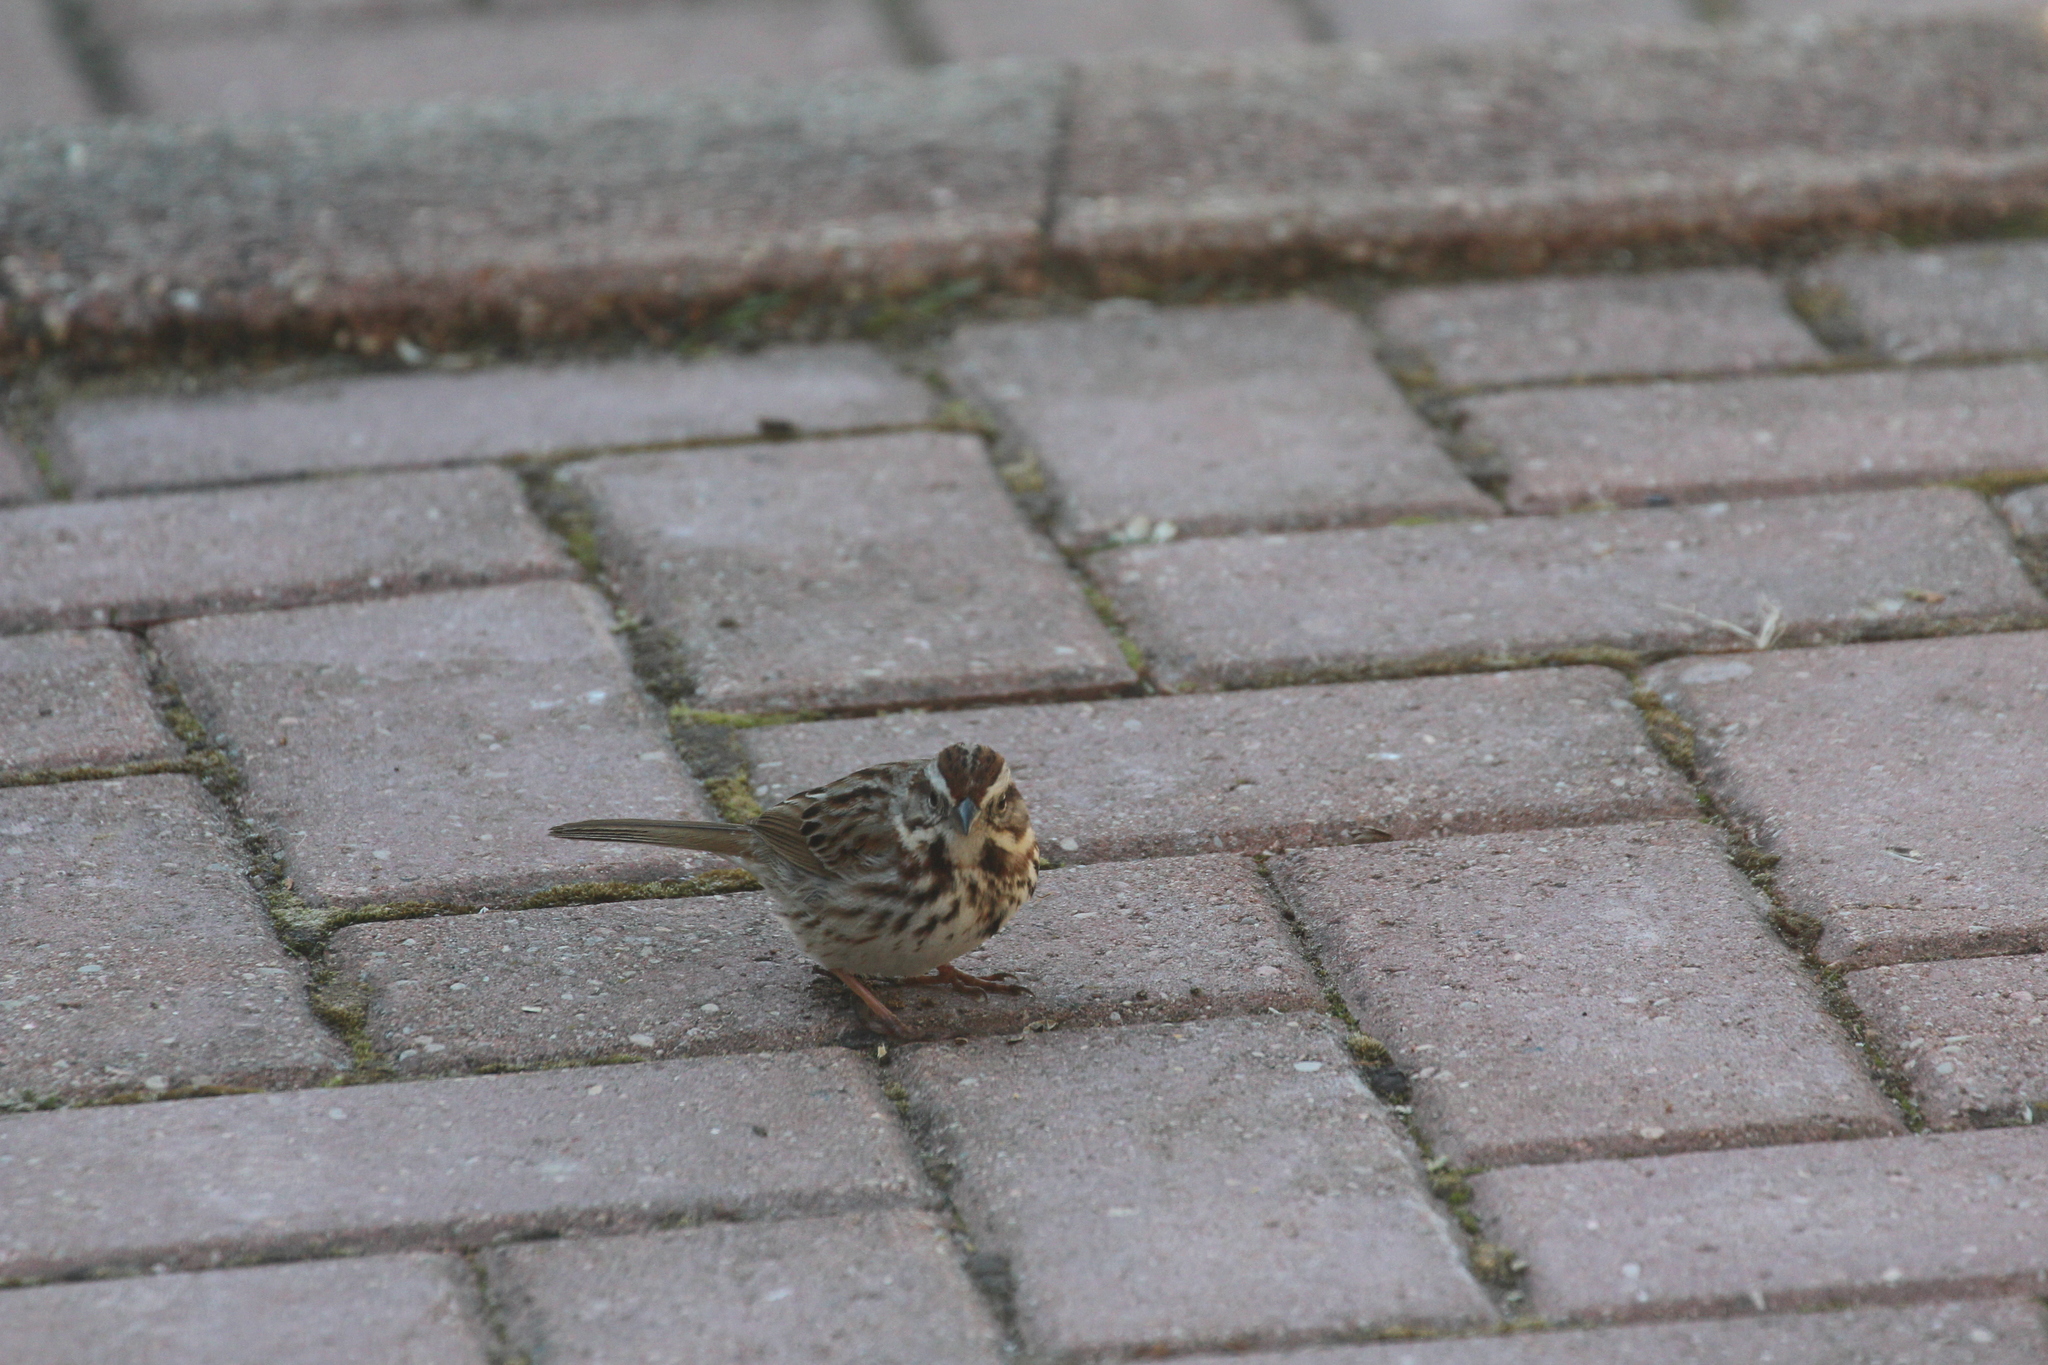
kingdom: Animalia
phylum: Chordata
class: Aves
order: Passeriformes
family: Passerellidae
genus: Melospiza
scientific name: Melospiza melodia
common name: Song sparrow
